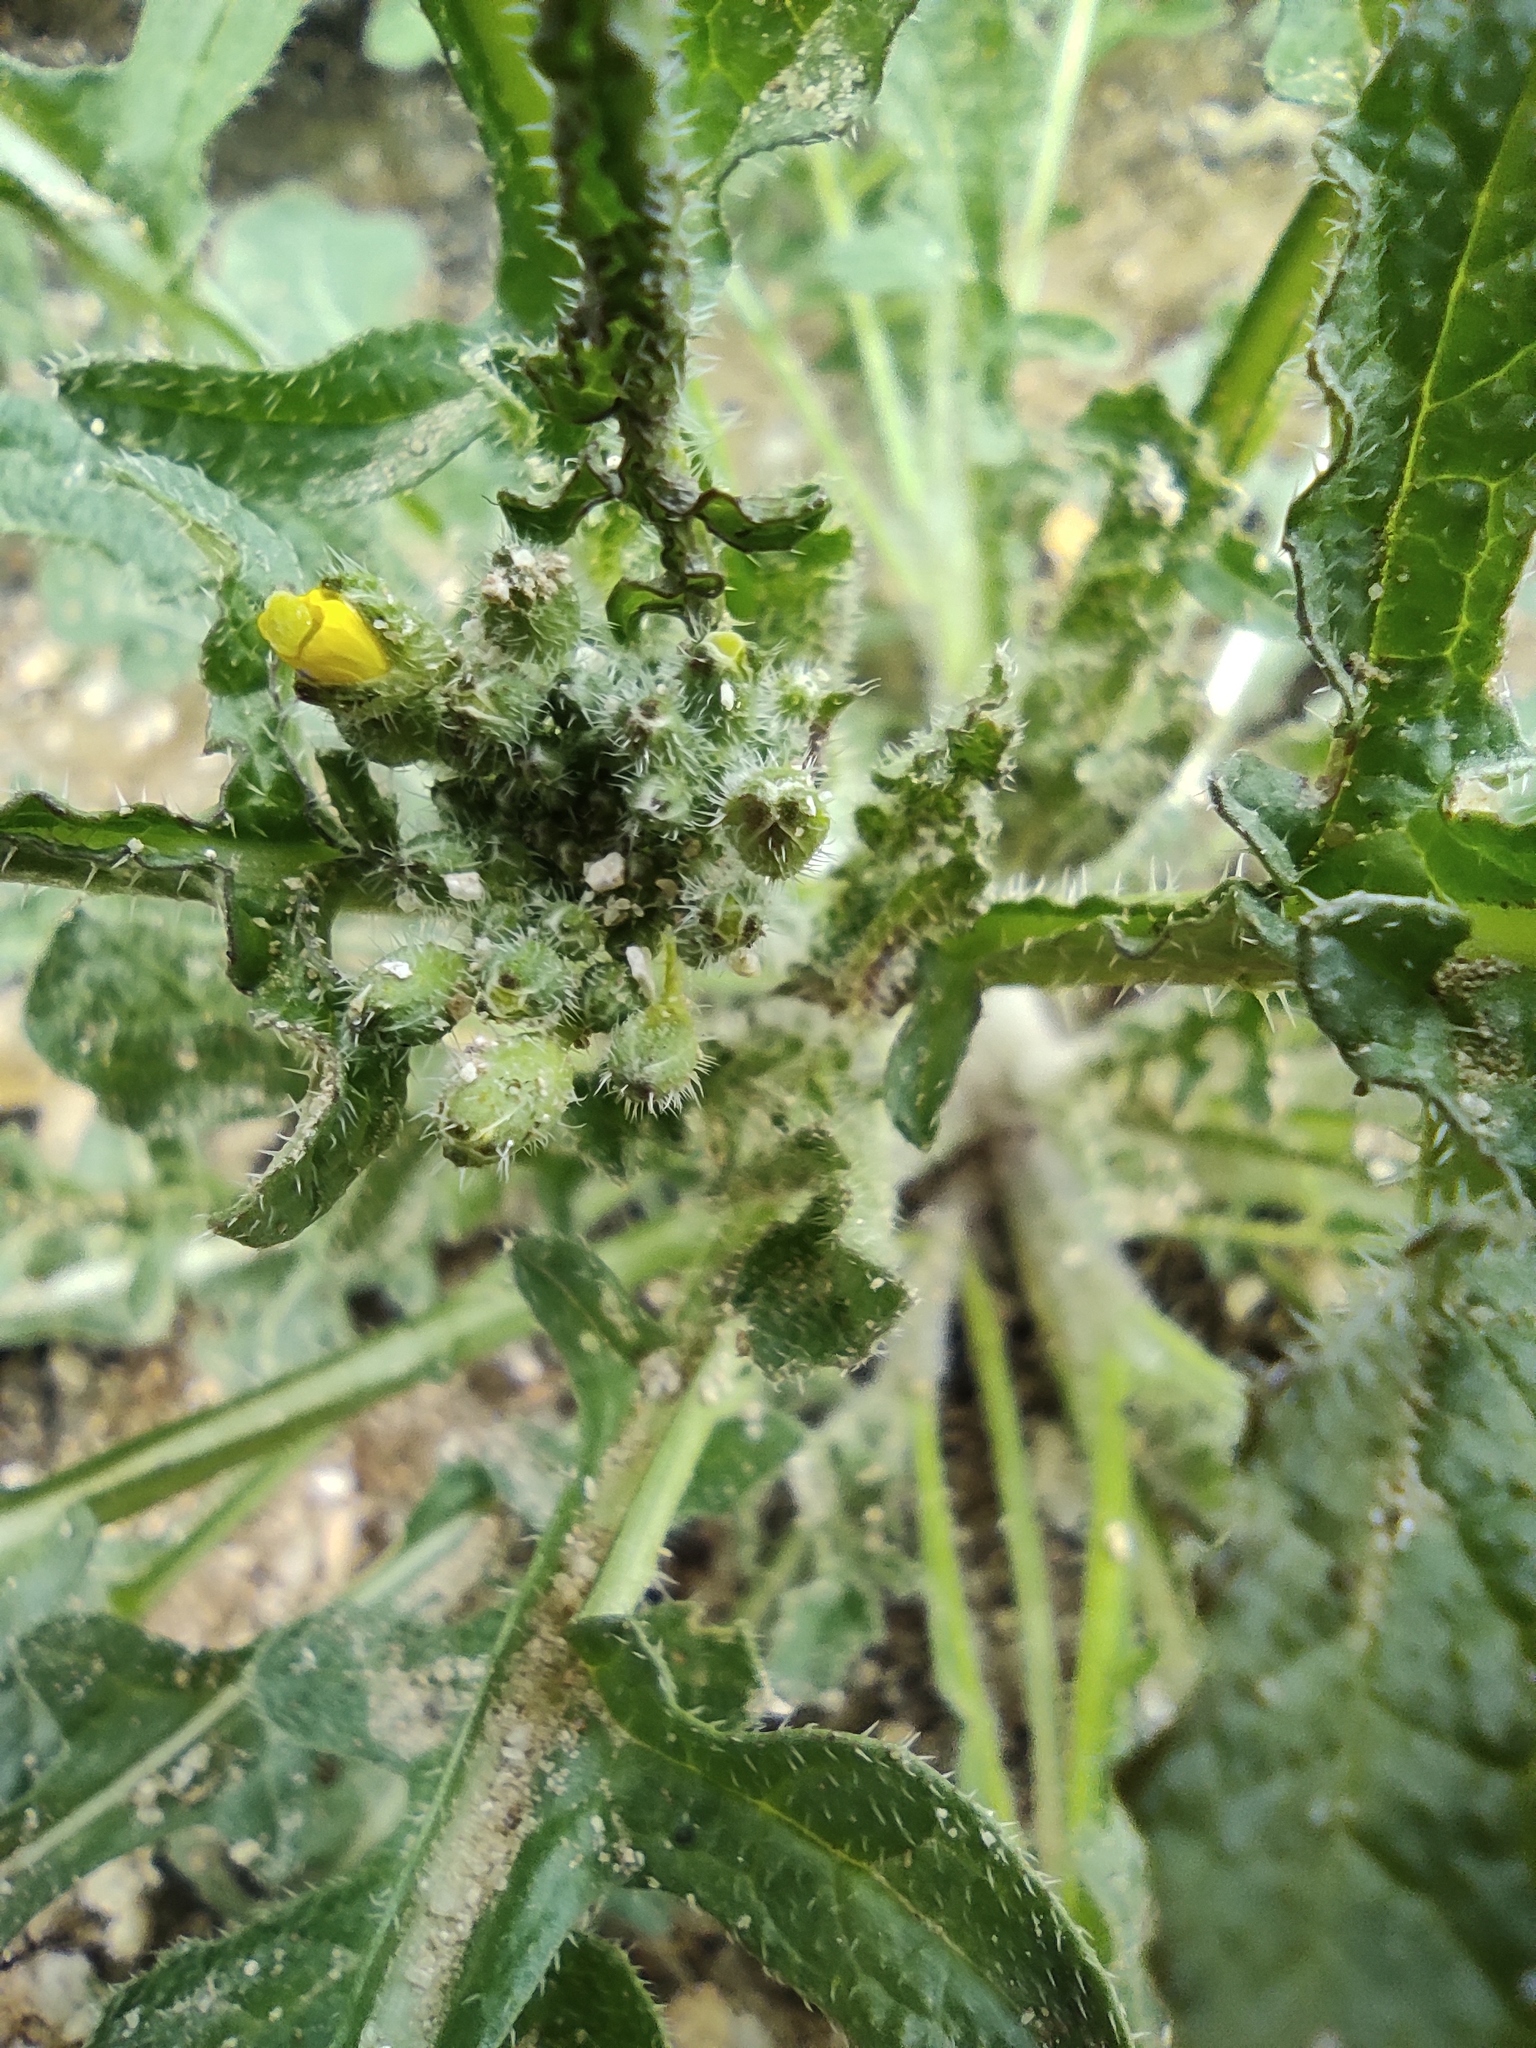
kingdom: Plantae
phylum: Tracheophyta
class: Magnoliopsida
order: Brassicales
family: Brassicaceae
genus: Diplotaxis
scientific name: Diplotaxis erucoides
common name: White rocket
